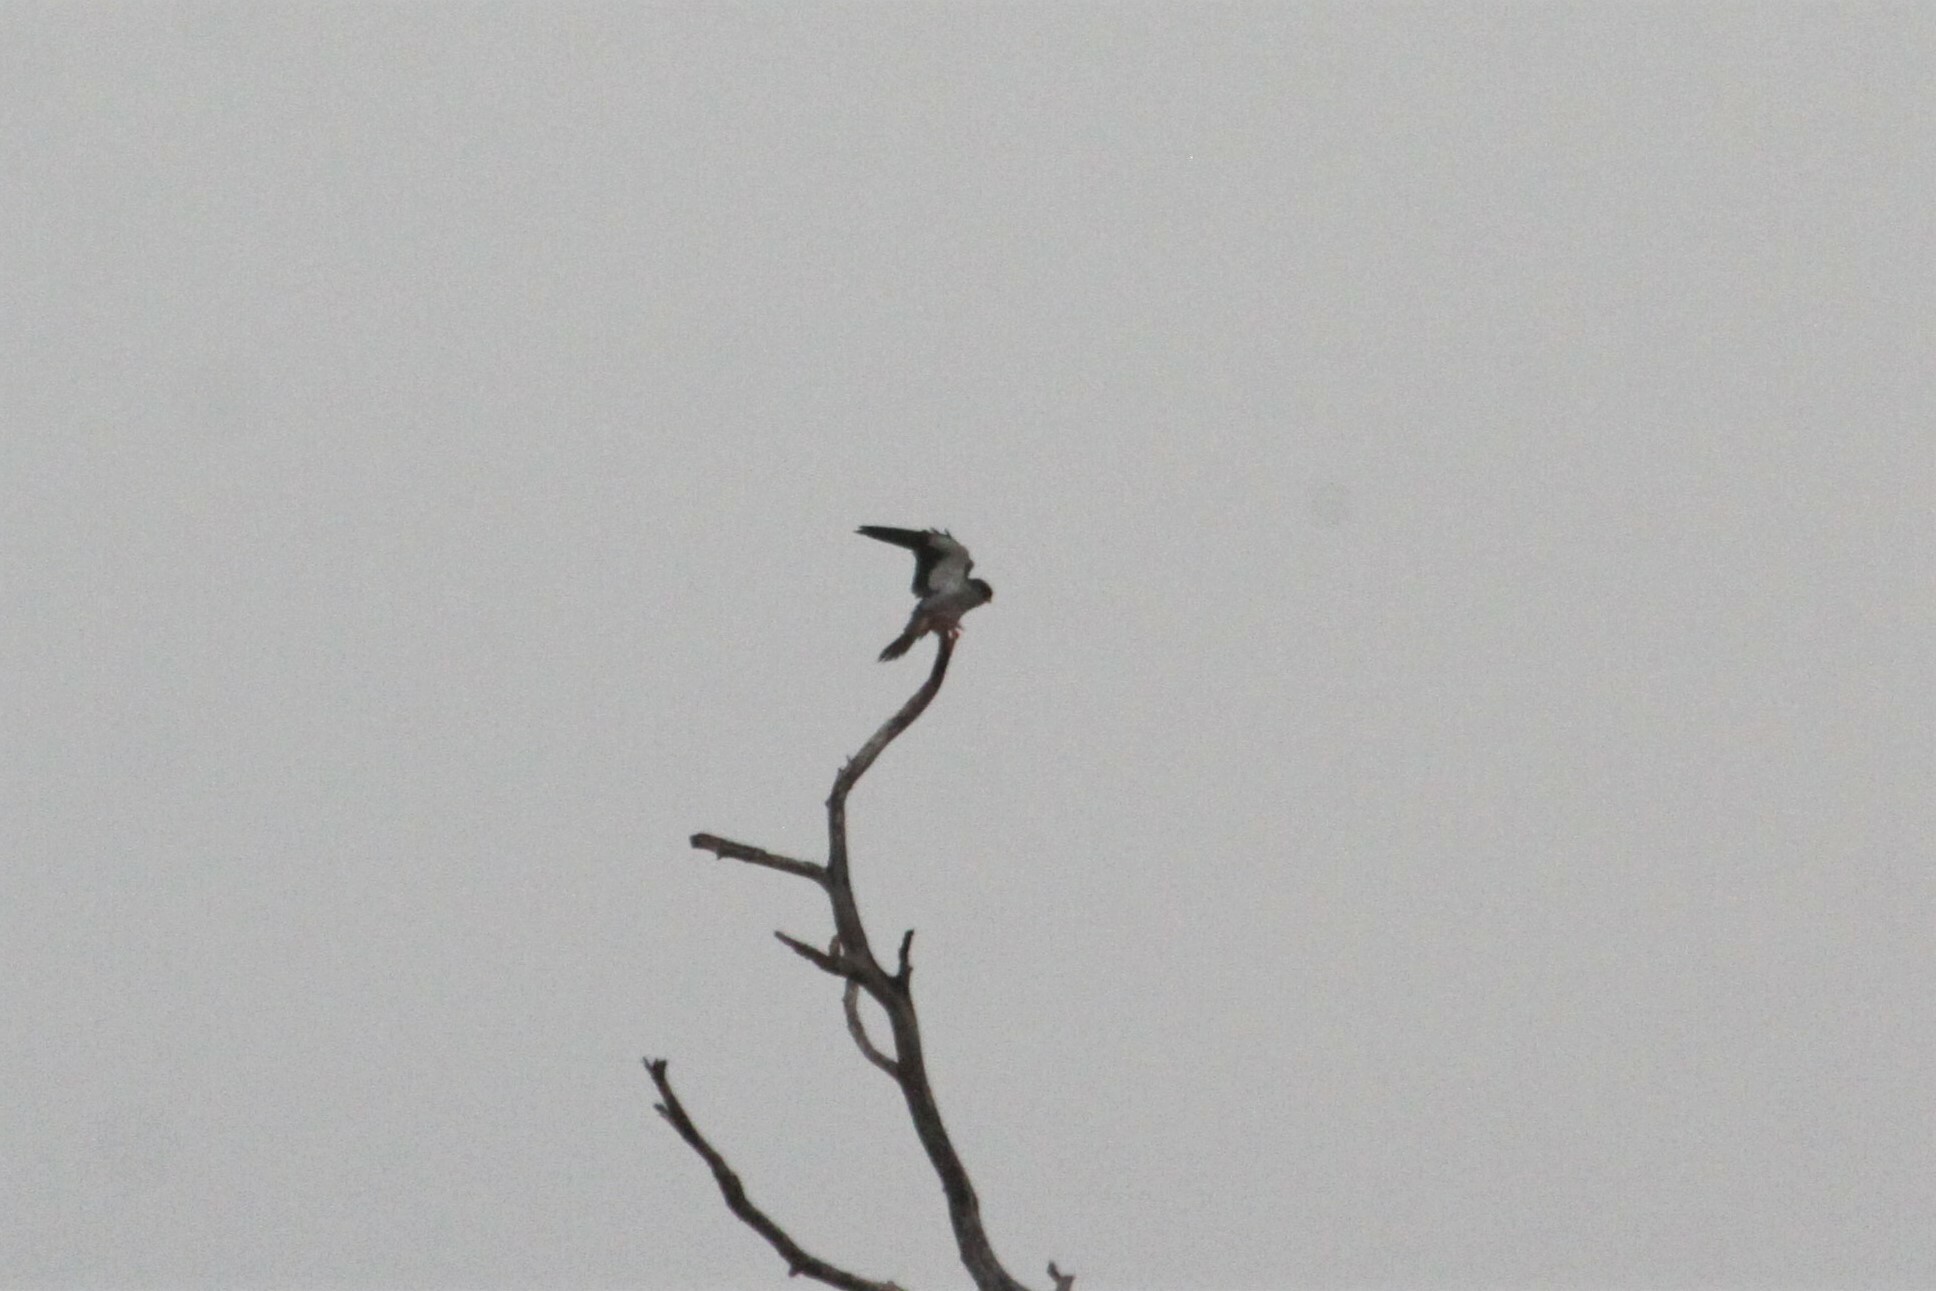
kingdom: Animalia
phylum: Chordata
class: Aves
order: Falconiformes
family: Falconidae
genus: Falco
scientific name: Falco amurensis
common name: Amur falcon
